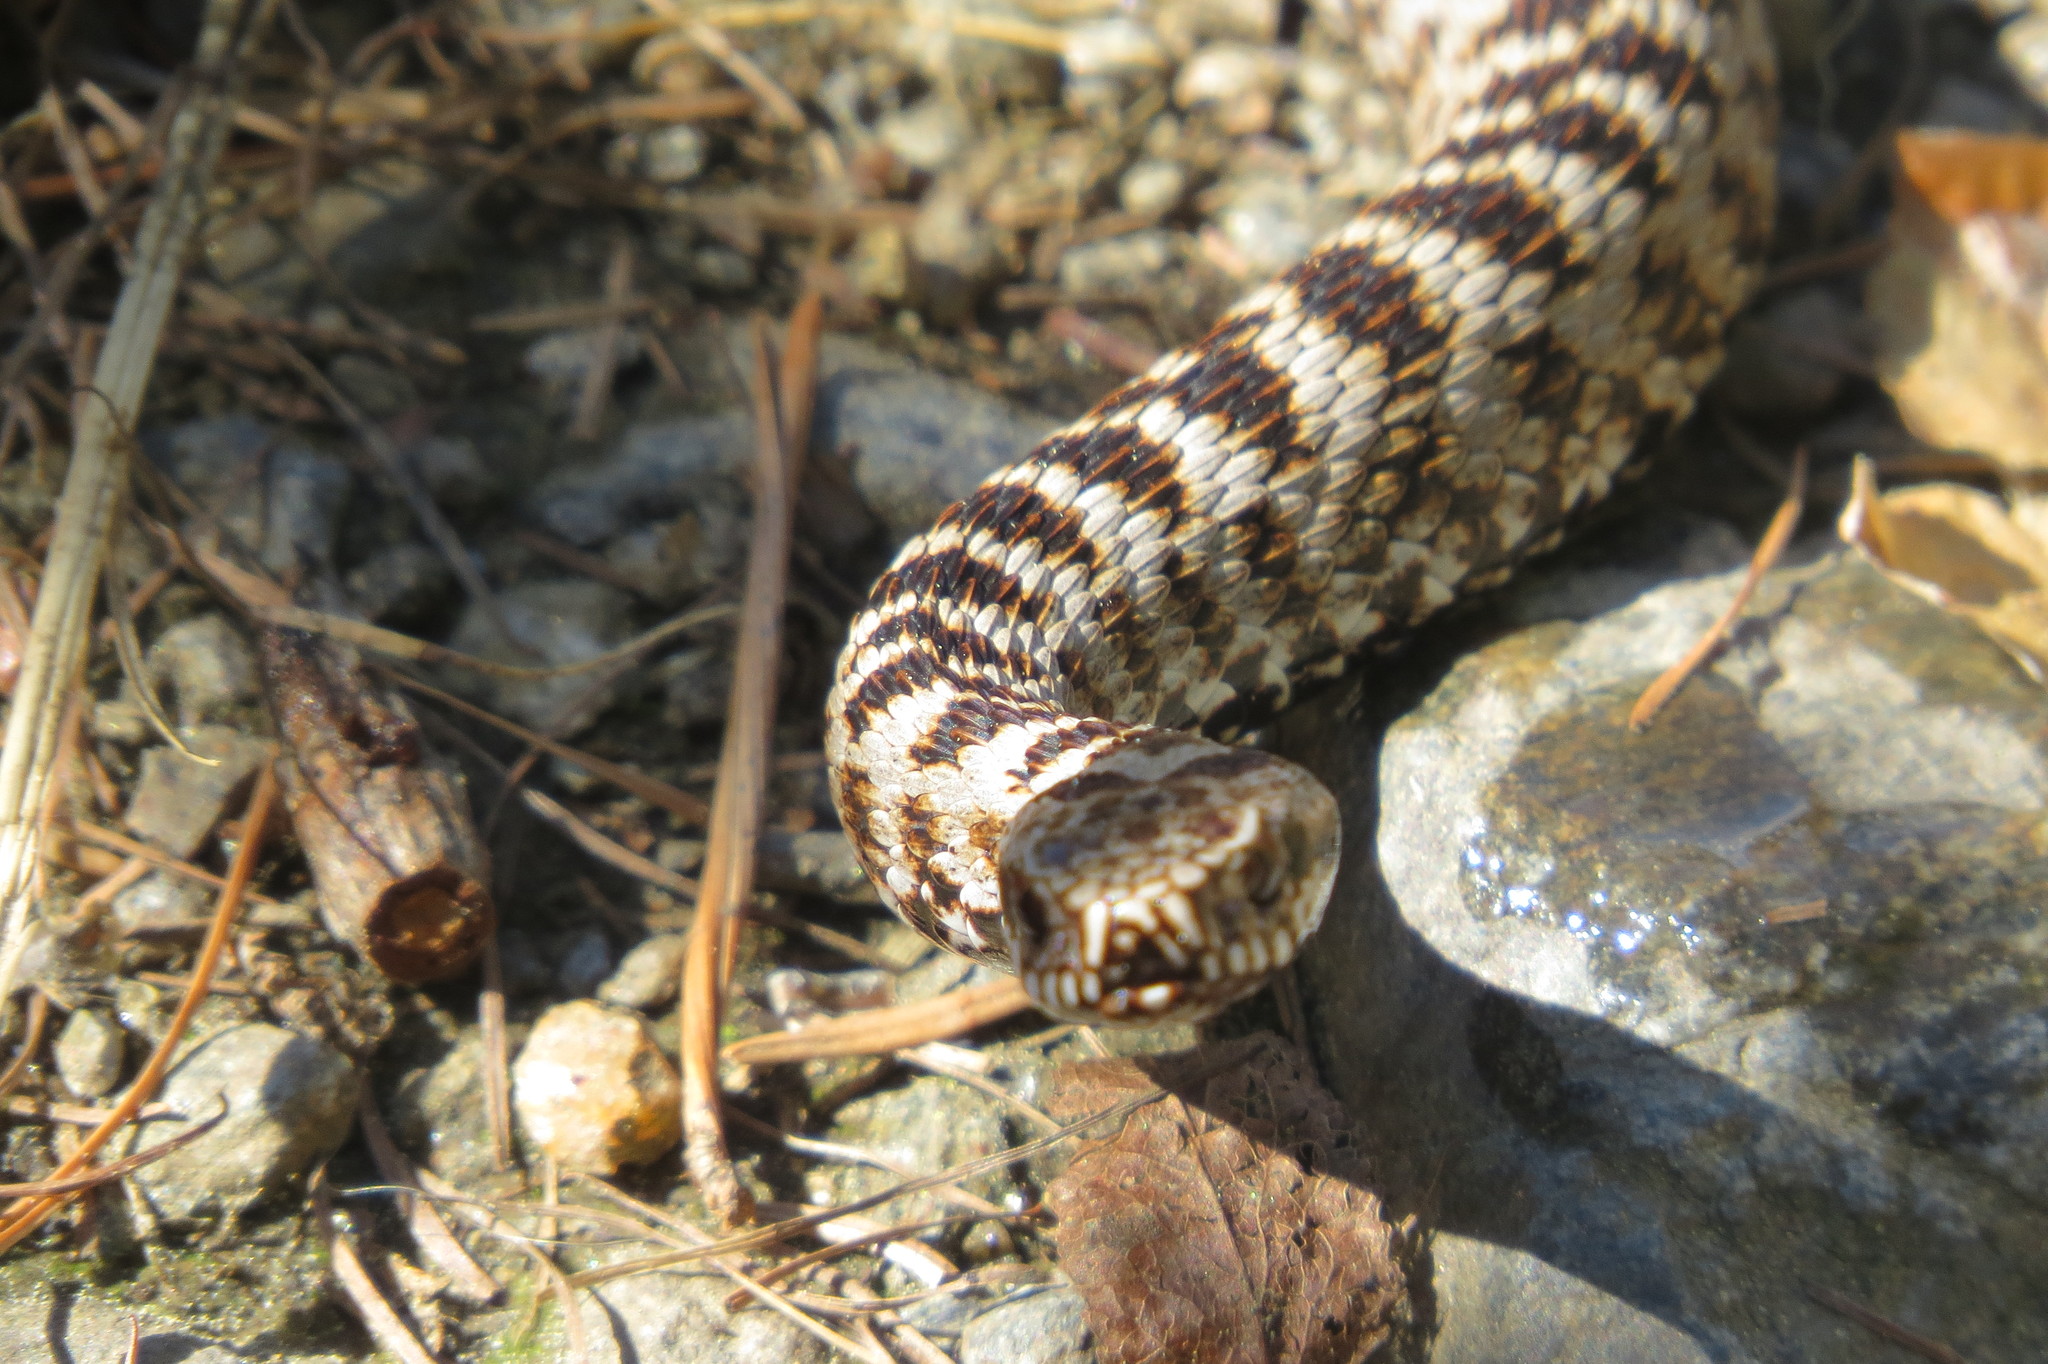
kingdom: Animalia
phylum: Chordata
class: Squamata
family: Viperidae
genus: Vipera
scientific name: Vipera berus
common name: Adder
